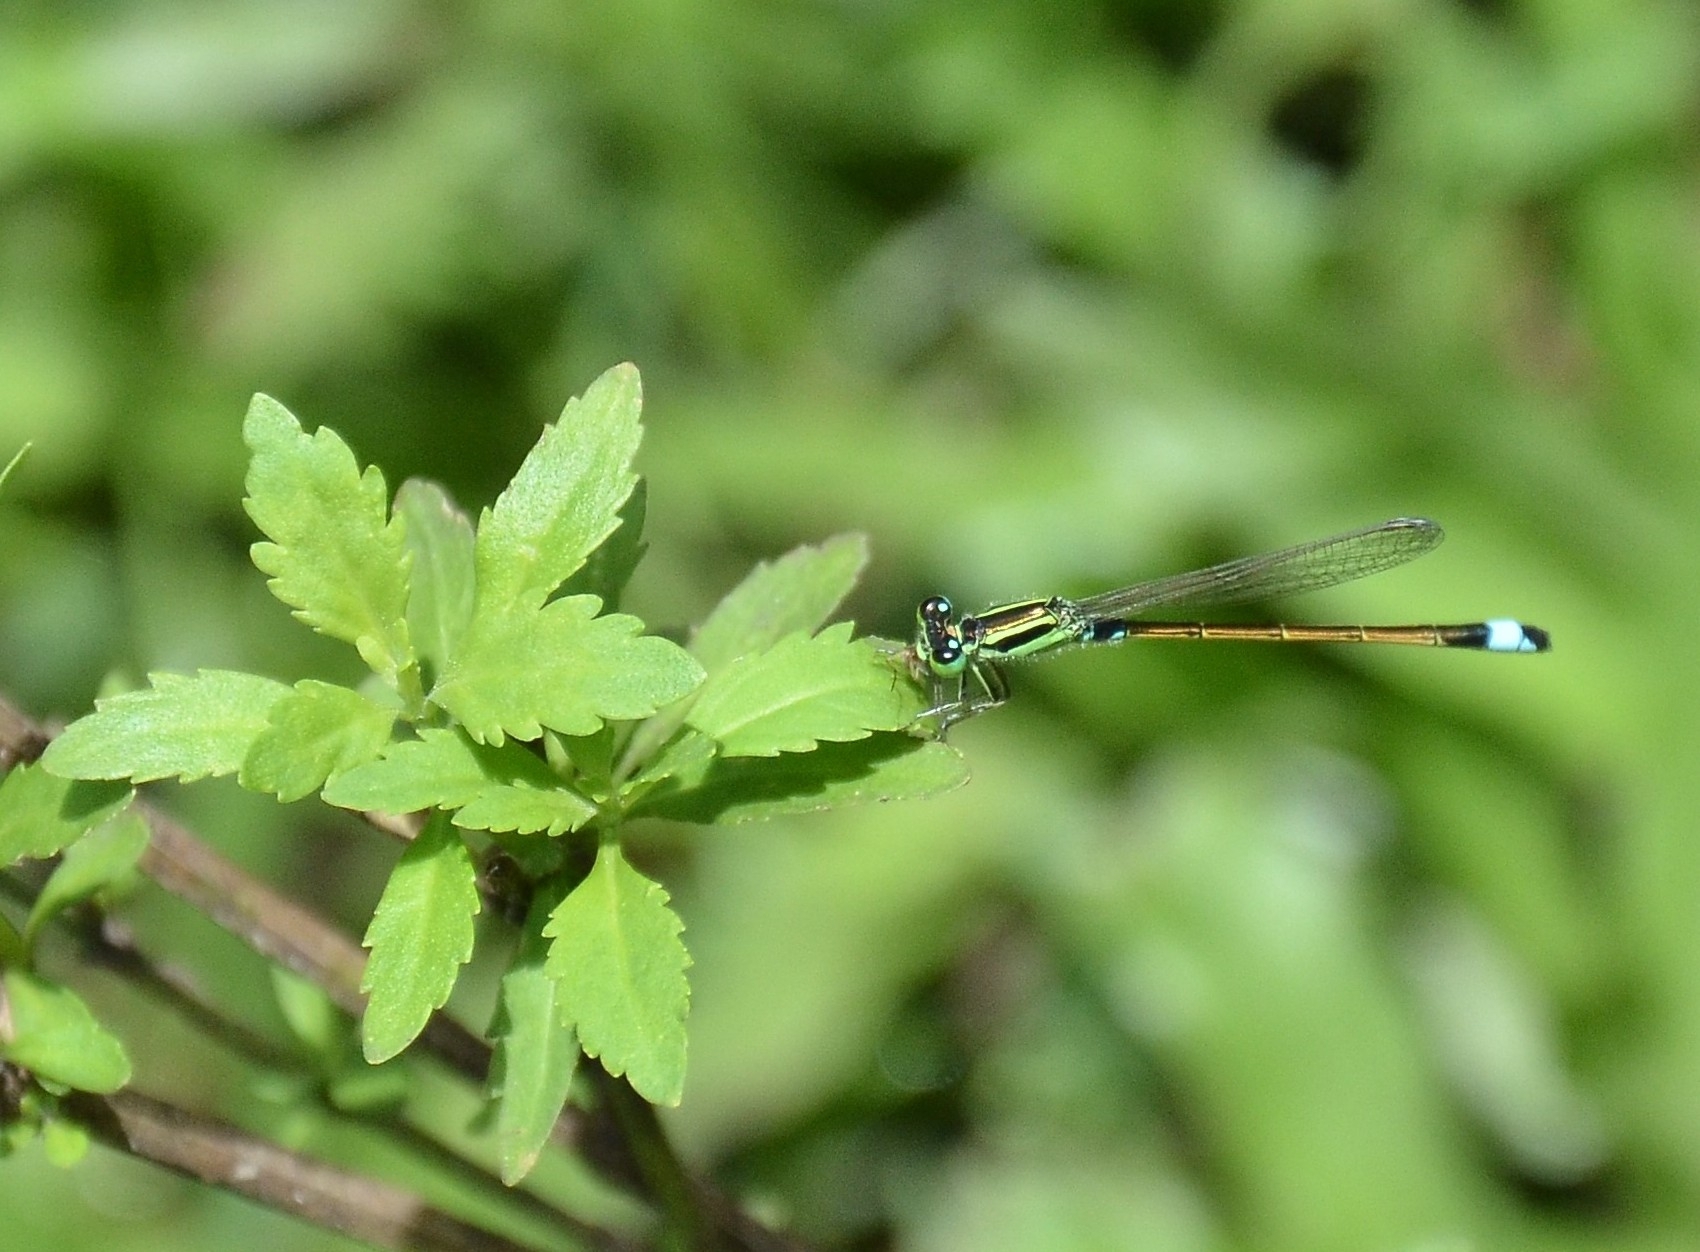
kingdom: Animalia
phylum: Arthropoda
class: Insecta
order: Odonata
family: Coenagrionidae
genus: Ischnura
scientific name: Ischnura senegalensis
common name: Tropical bluetail
